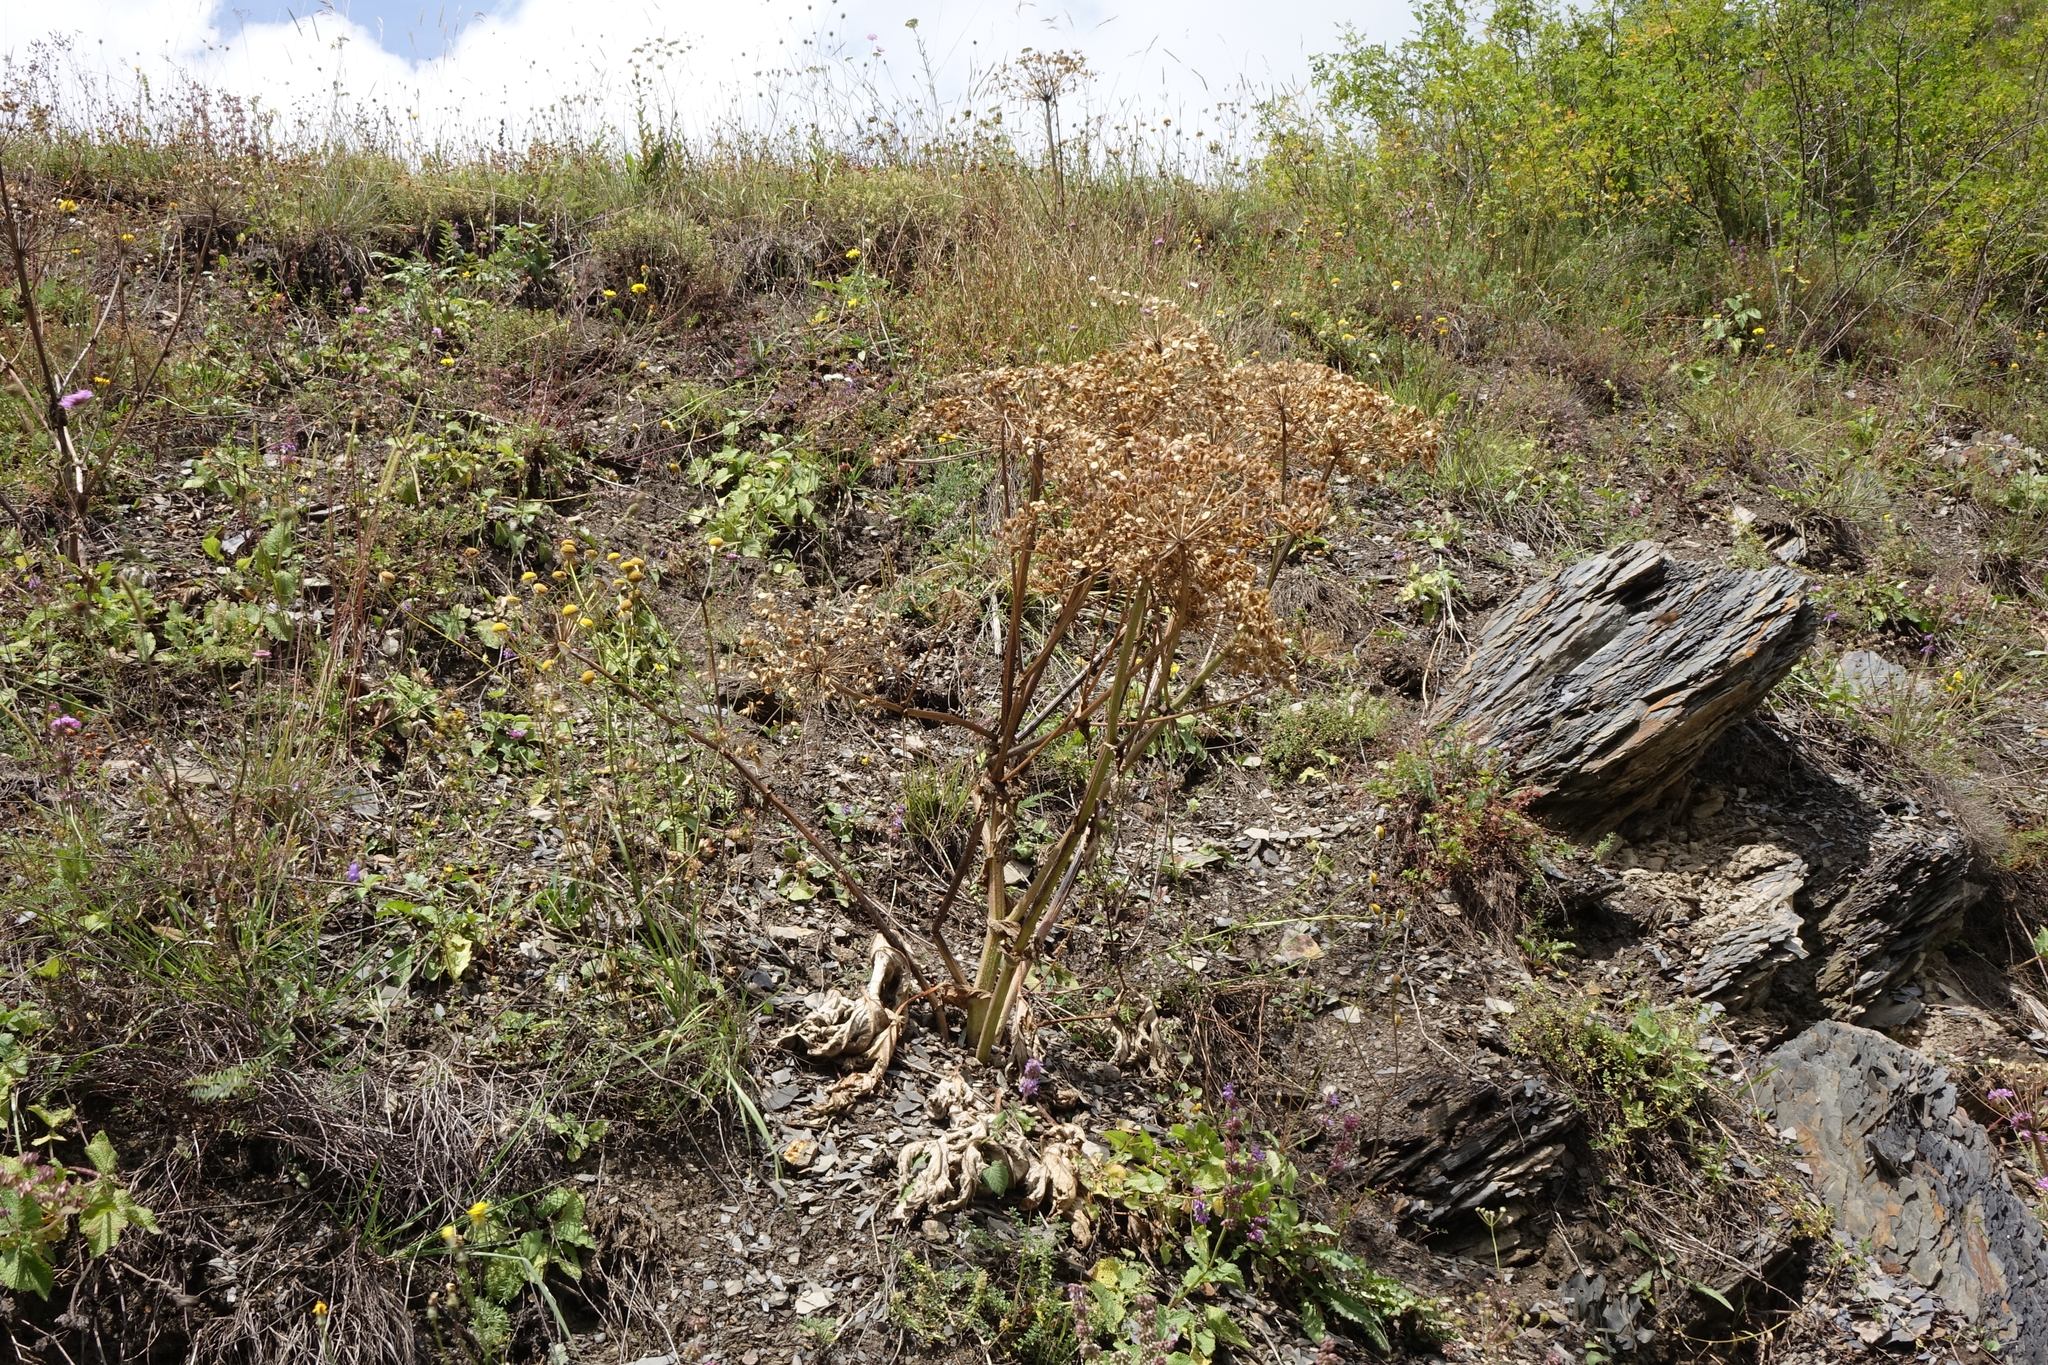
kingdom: Plantae
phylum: Tracheophyta
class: Magnoliopsida
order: Apiales
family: Apiaceae
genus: Heracleum
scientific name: Heracleum grandiflorum
